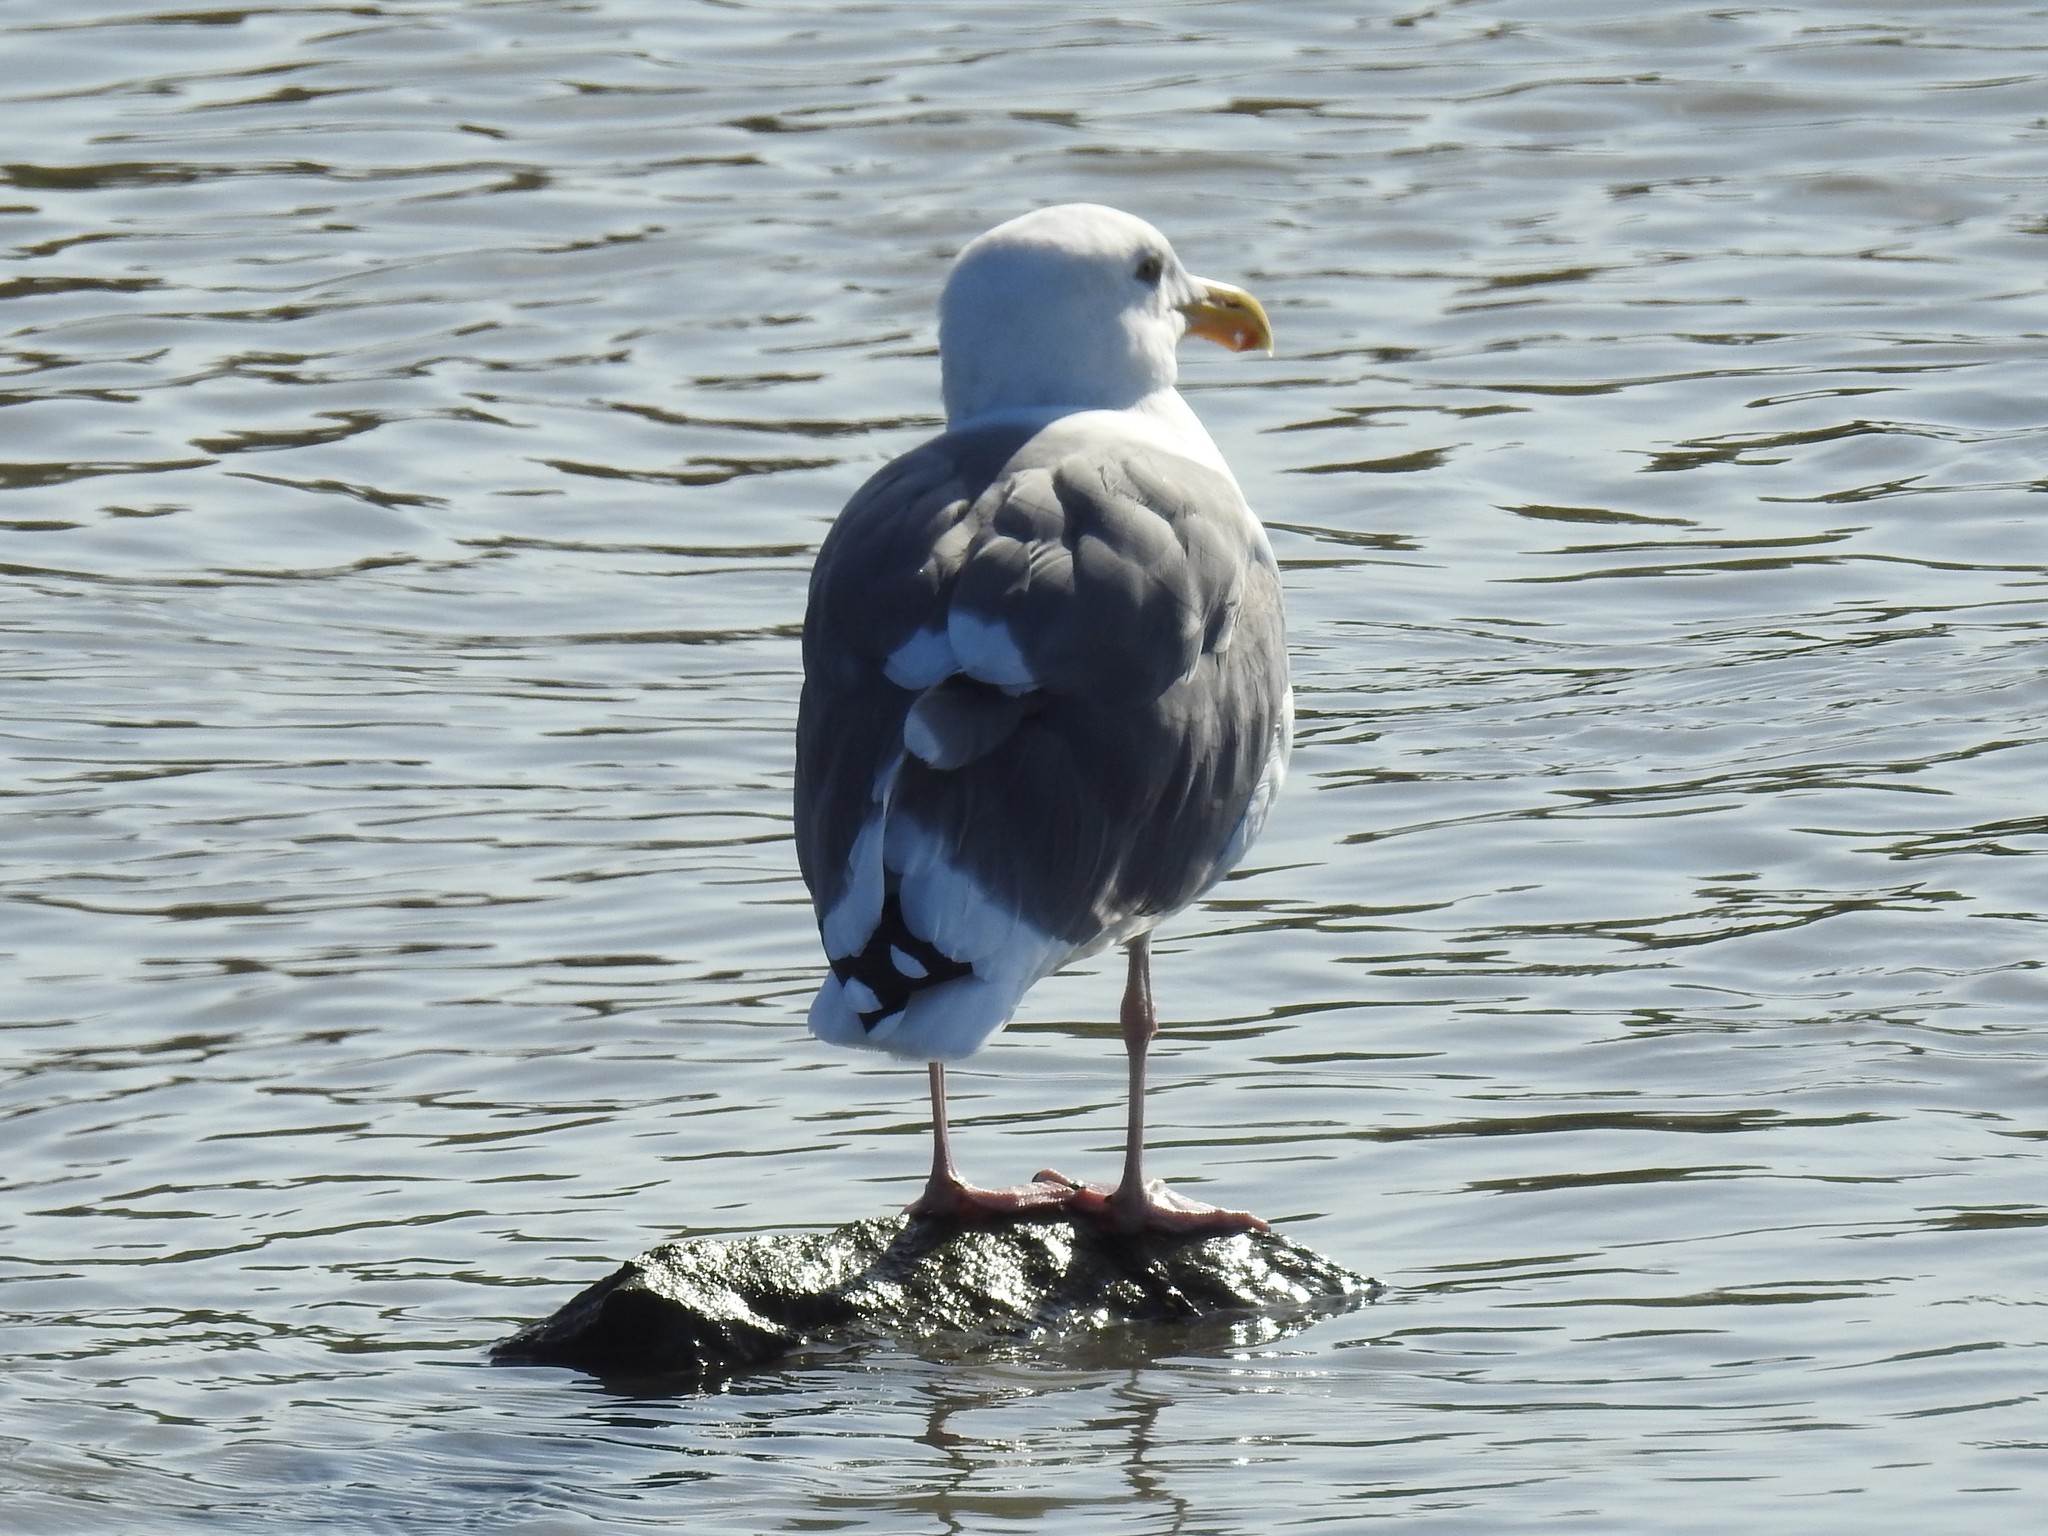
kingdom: Animalia
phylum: Chordata
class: Aves
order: Charadriiformes
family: Laridae
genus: Larus
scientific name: Larus occidentalis
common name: Western gull
